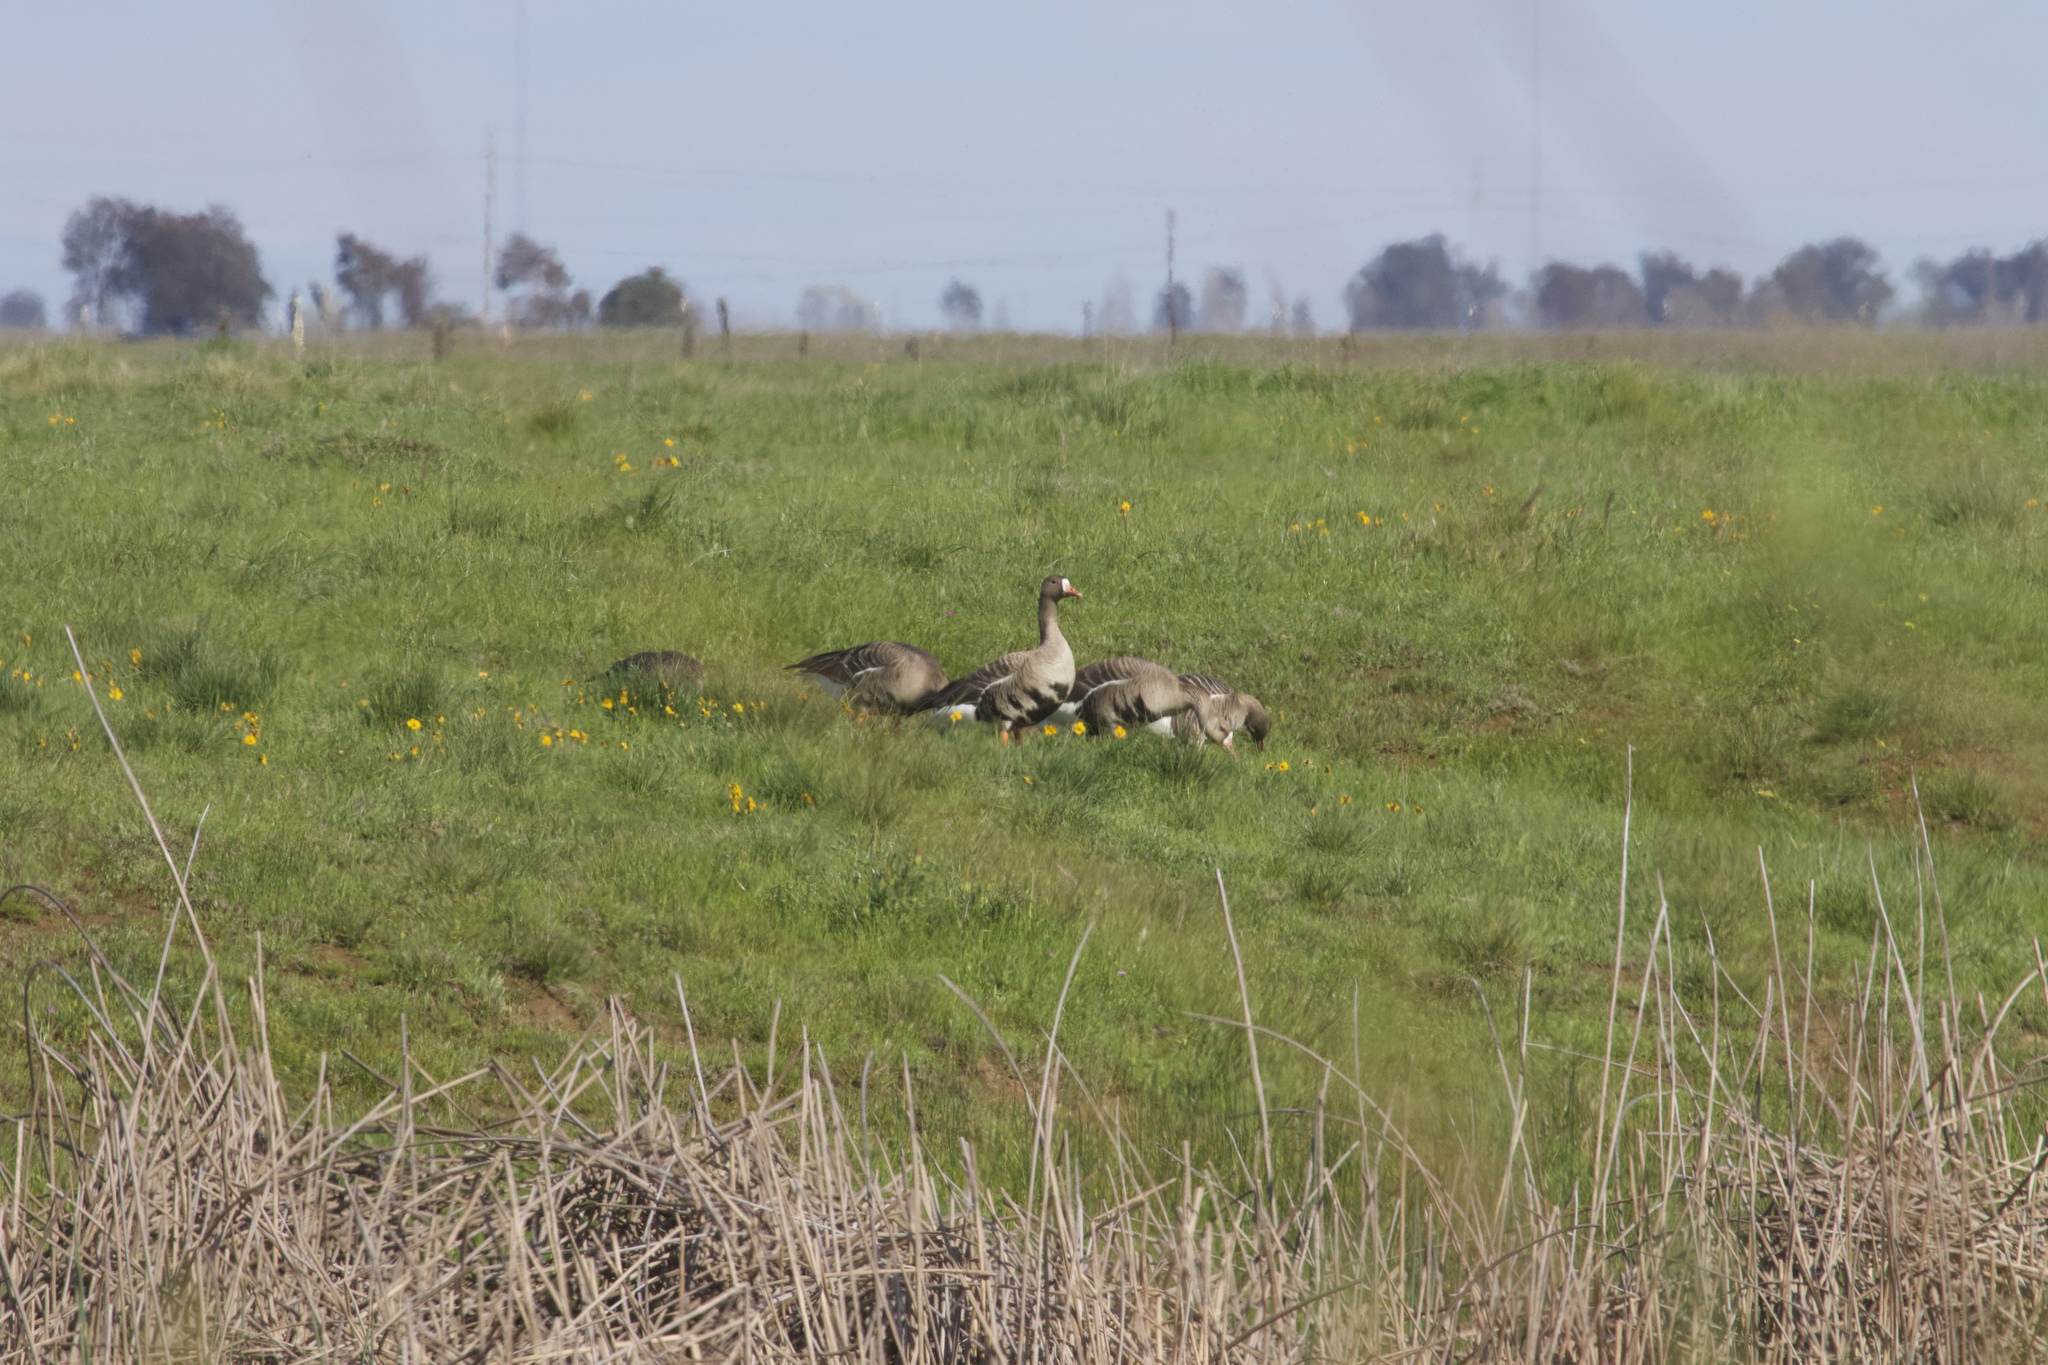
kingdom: Animalia
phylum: Chordata
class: Aves
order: Anseriformes
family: Anatidae
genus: Anser
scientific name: Anser albifrons
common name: Greater white-fronted goose
